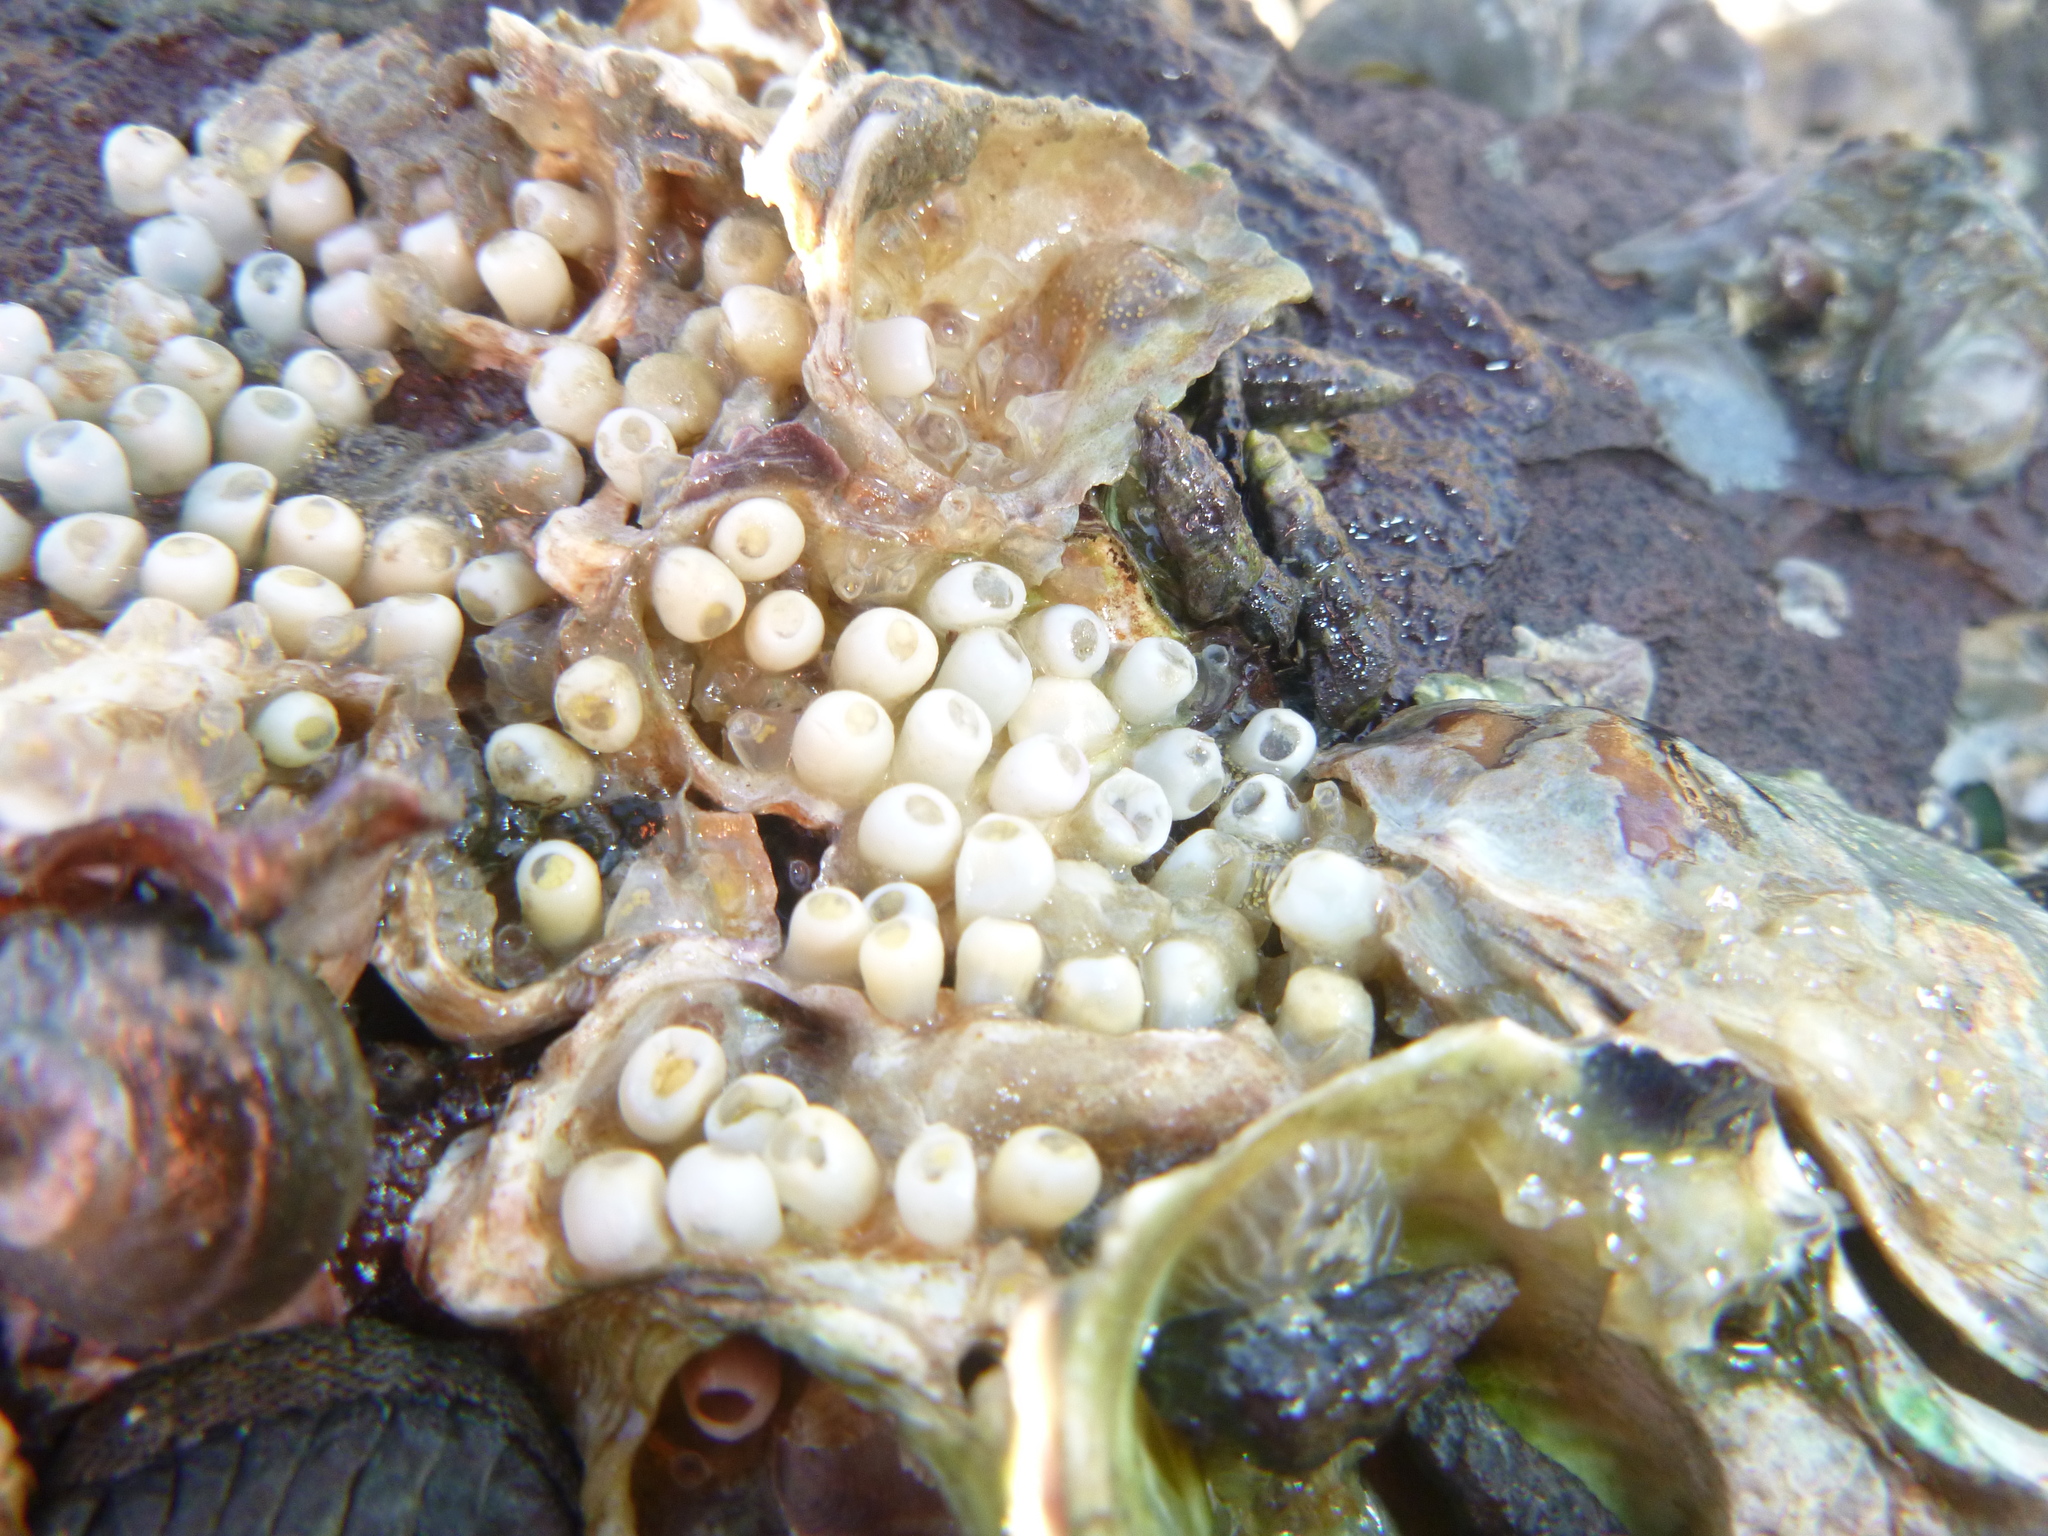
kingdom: Animalia
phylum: Mollusca
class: Gastropoda
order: Neogastropoda
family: Muricidae
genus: Haustrum
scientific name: Haustrum
